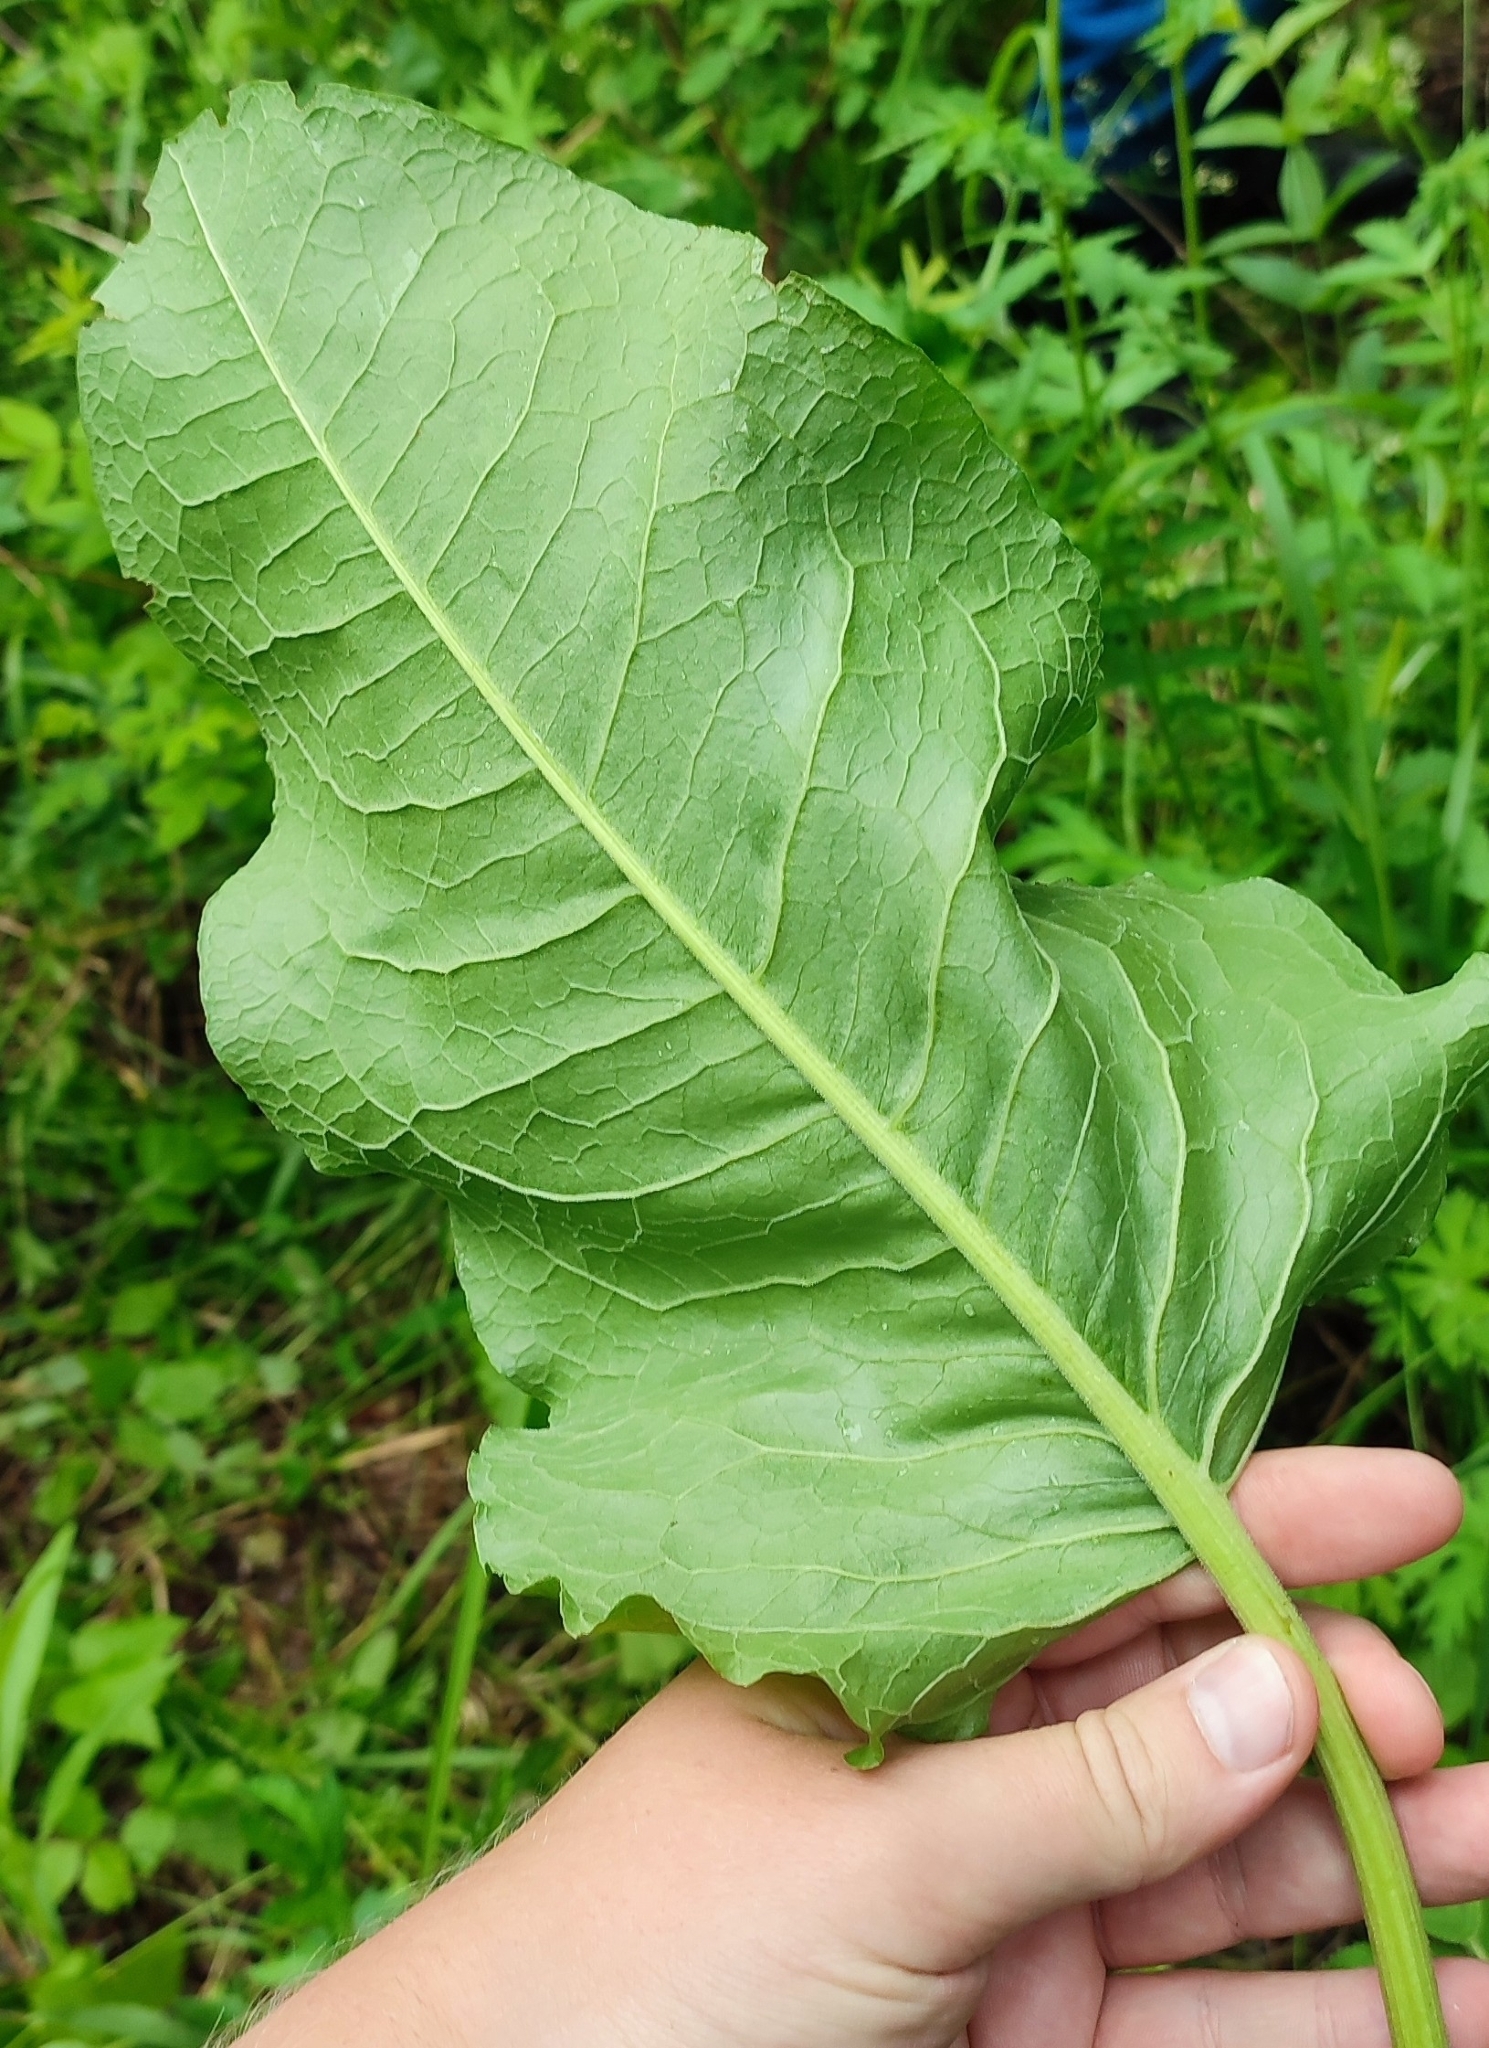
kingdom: Plantae
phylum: Tracheophyta
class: Magnoliopsida
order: Caryophyllales
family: Polygonaceae
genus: Rumex
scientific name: Rumex confertus
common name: Russian dock
